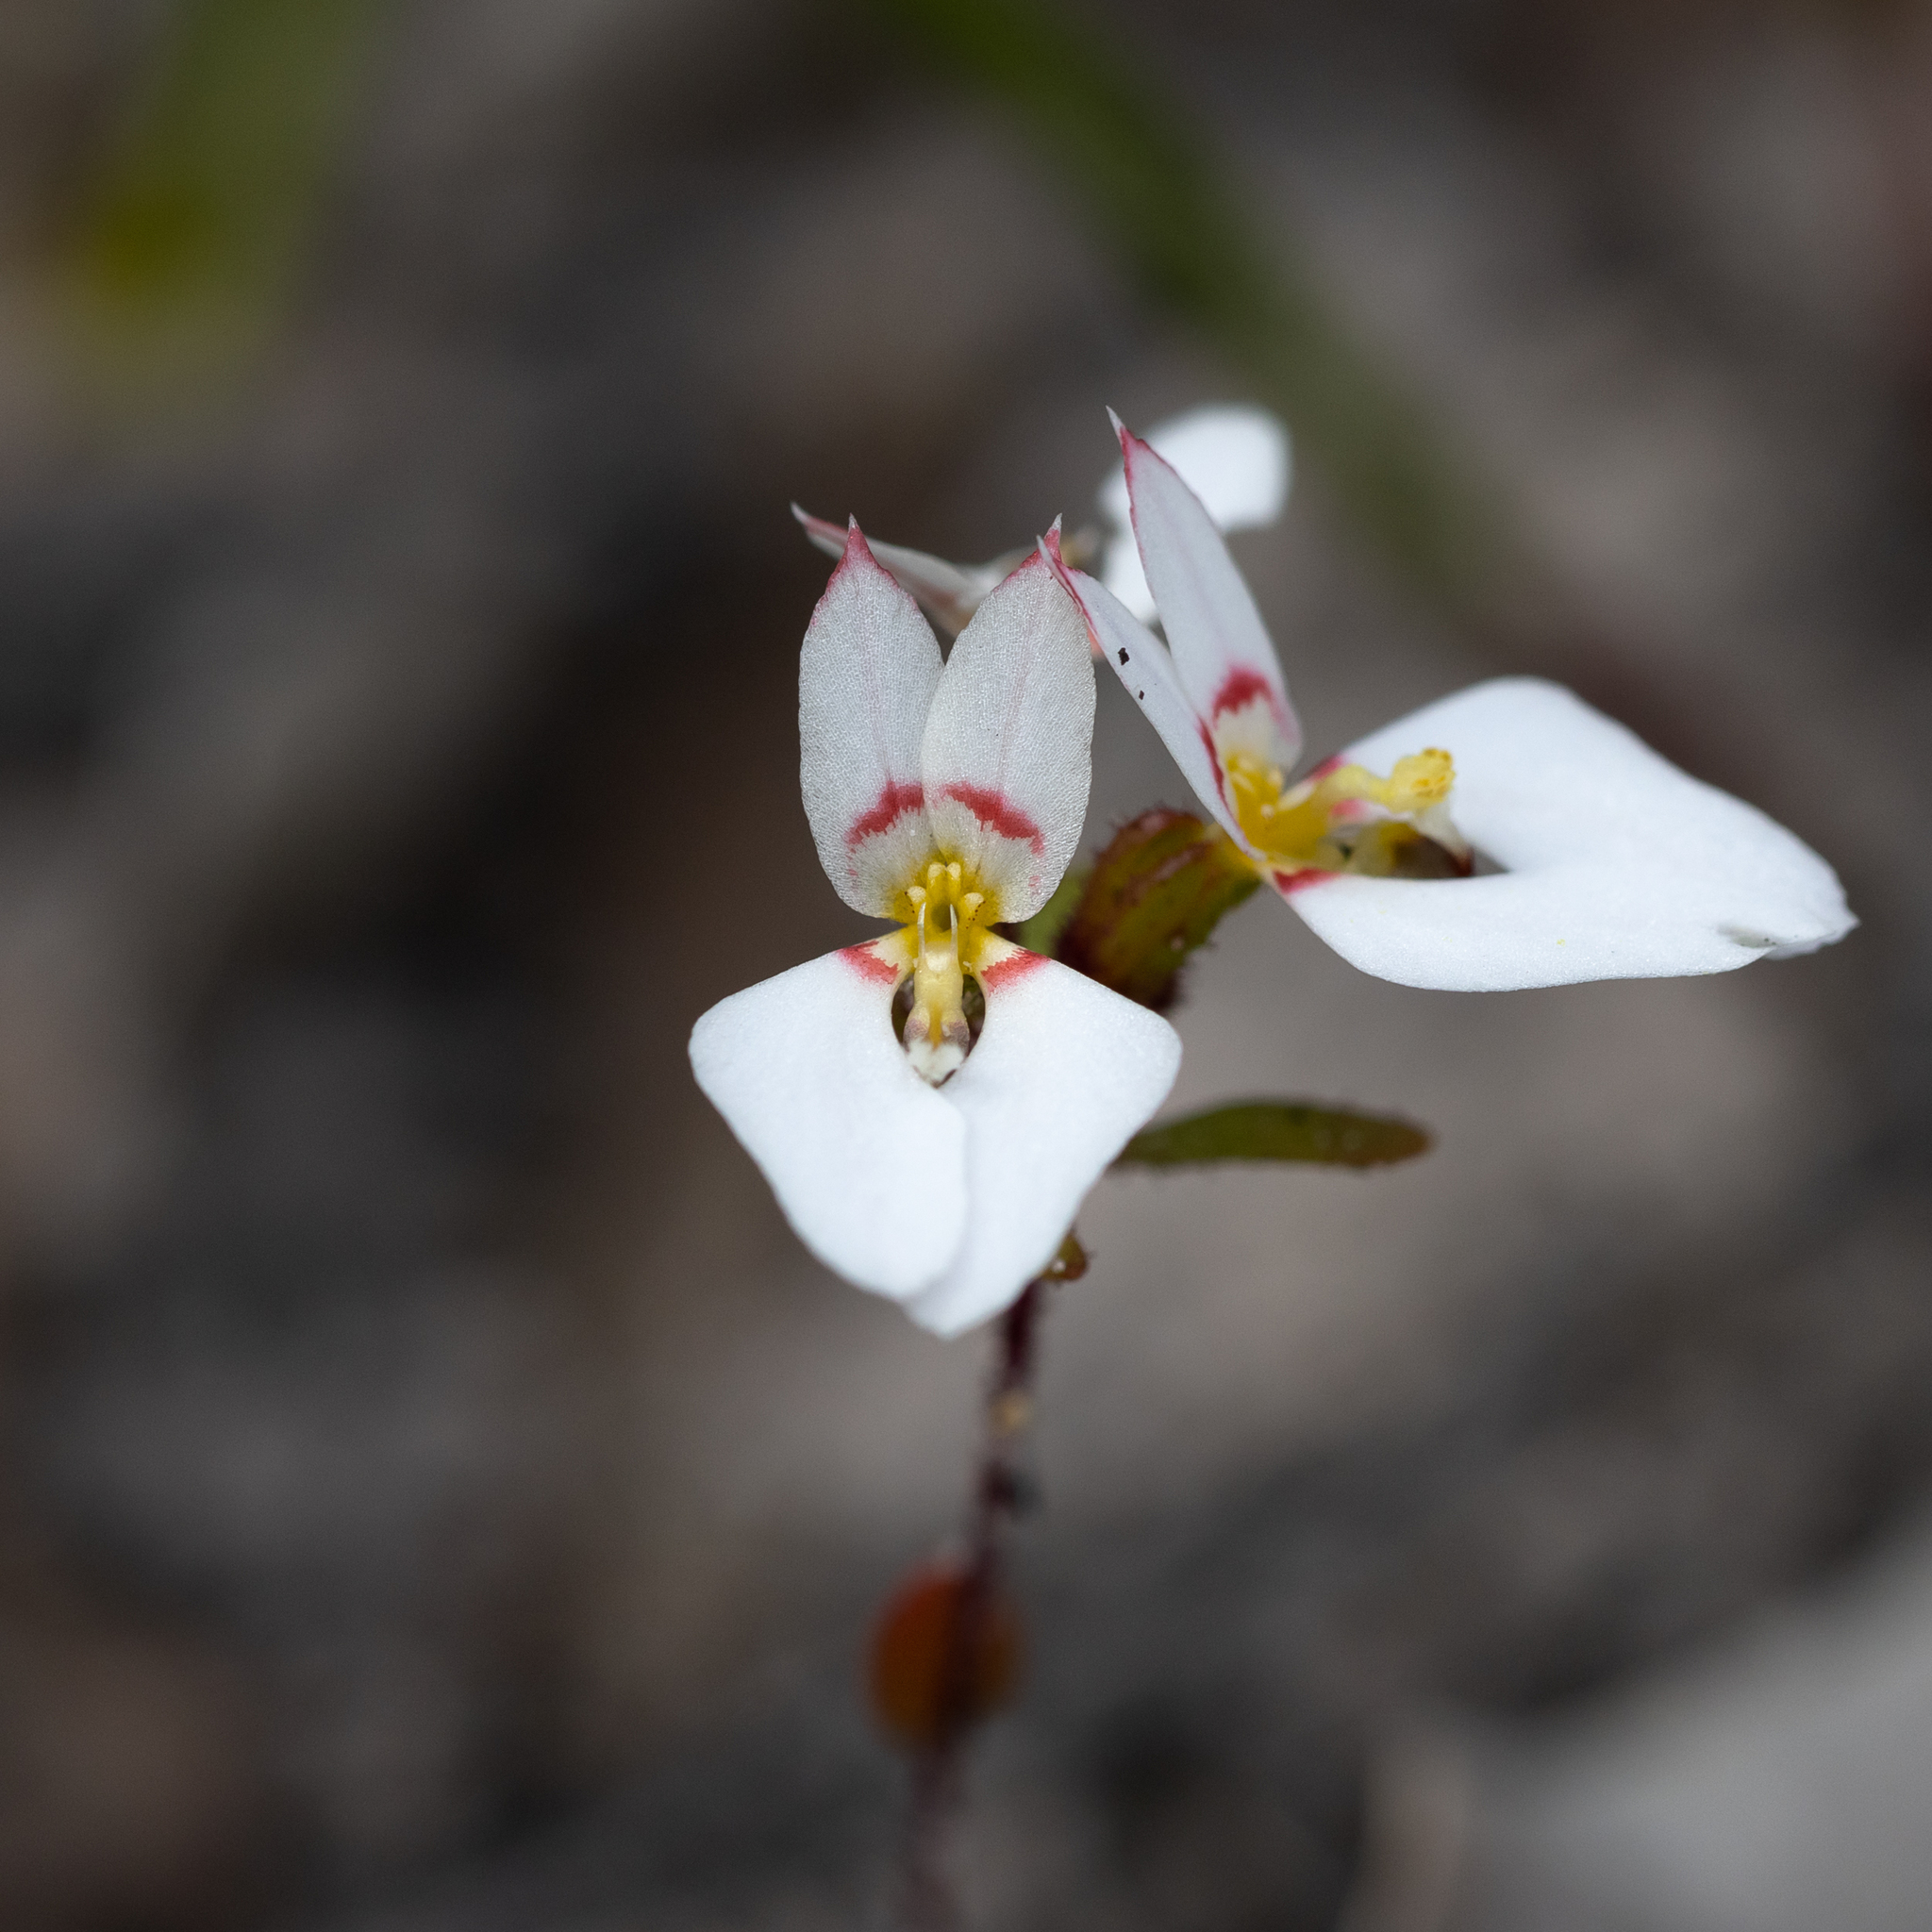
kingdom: Plantae
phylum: Tracheophyta
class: Magnoliopsida
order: Asterales
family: Stylidiaceae
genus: Levenhookia
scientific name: Levenhookia pauciflora
